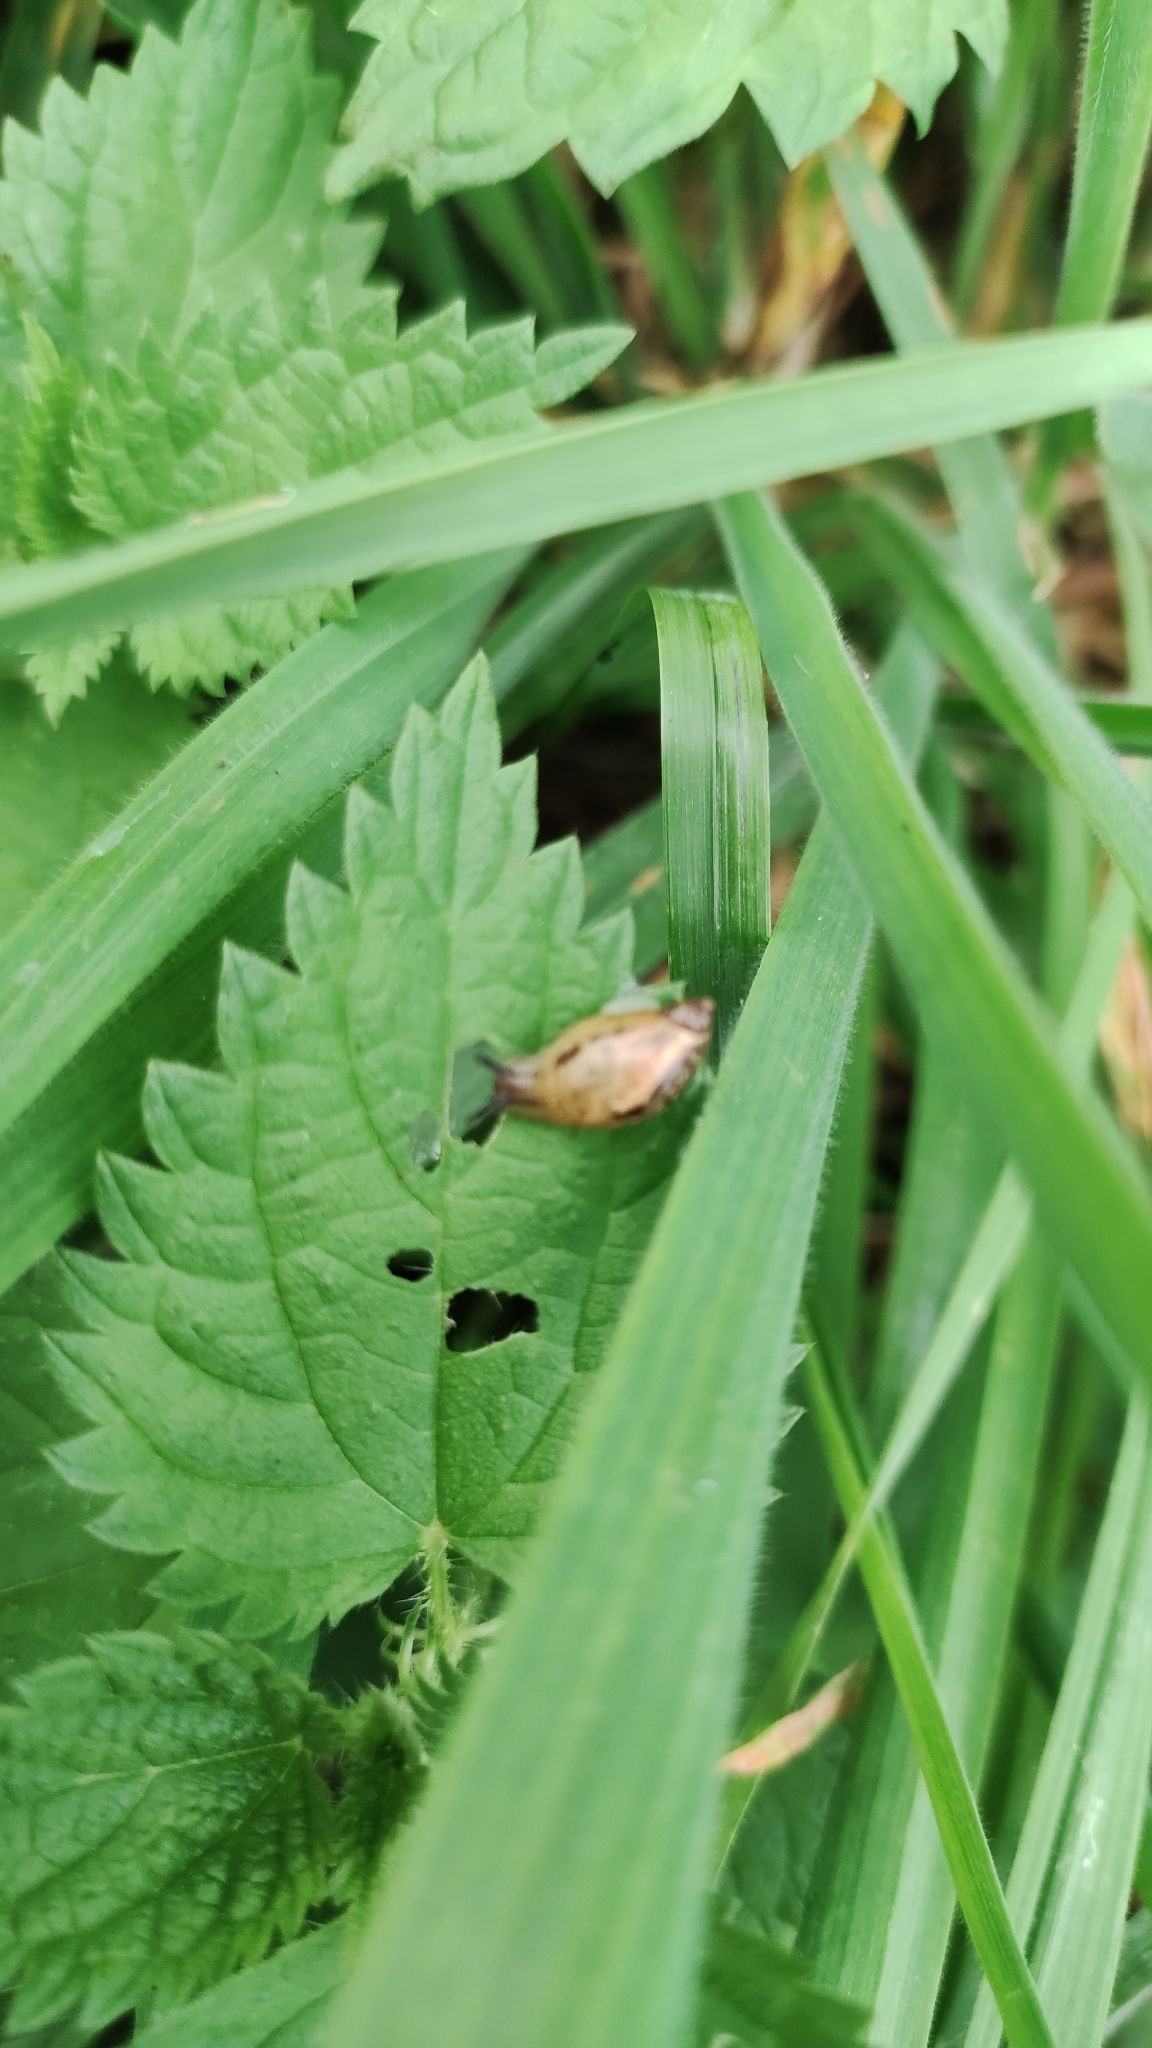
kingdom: Animalia
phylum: Mollusca
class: Gastropoda
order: Stylommatophora
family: Succineidae
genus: Succinea
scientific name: Succinea putris
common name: European ambersnail
